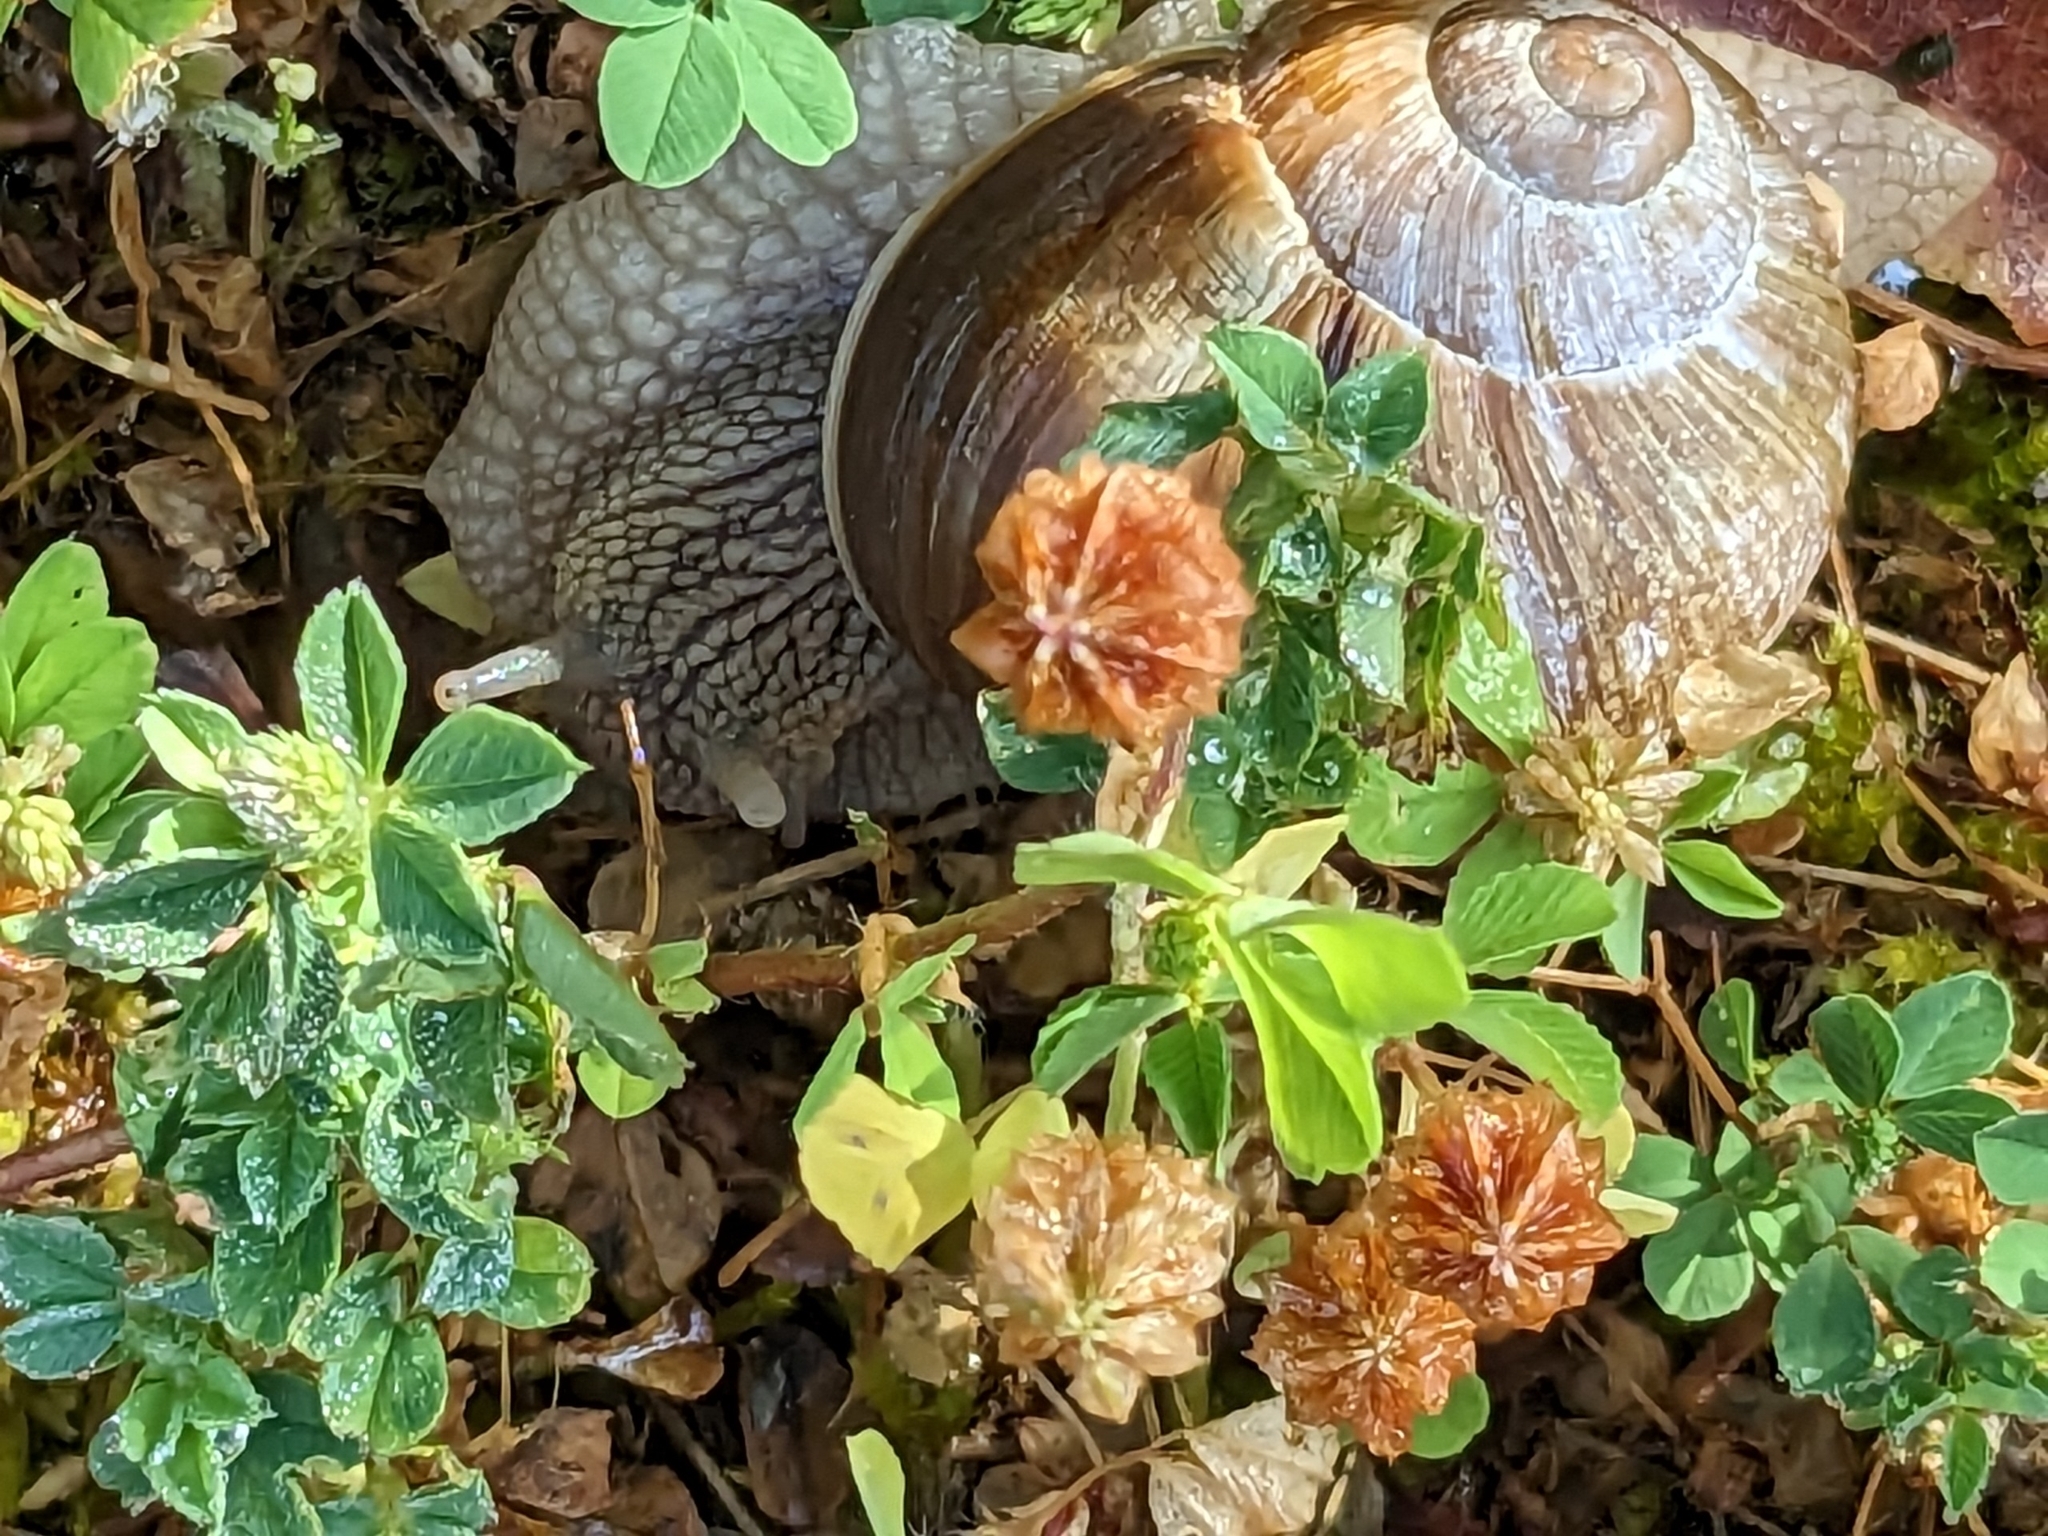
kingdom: Animalia
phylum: Mollusca
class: Gastropoda
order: Stylommatophora
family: Helicidae
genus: Helix
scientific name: Helix pomatia
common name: Roman snail
